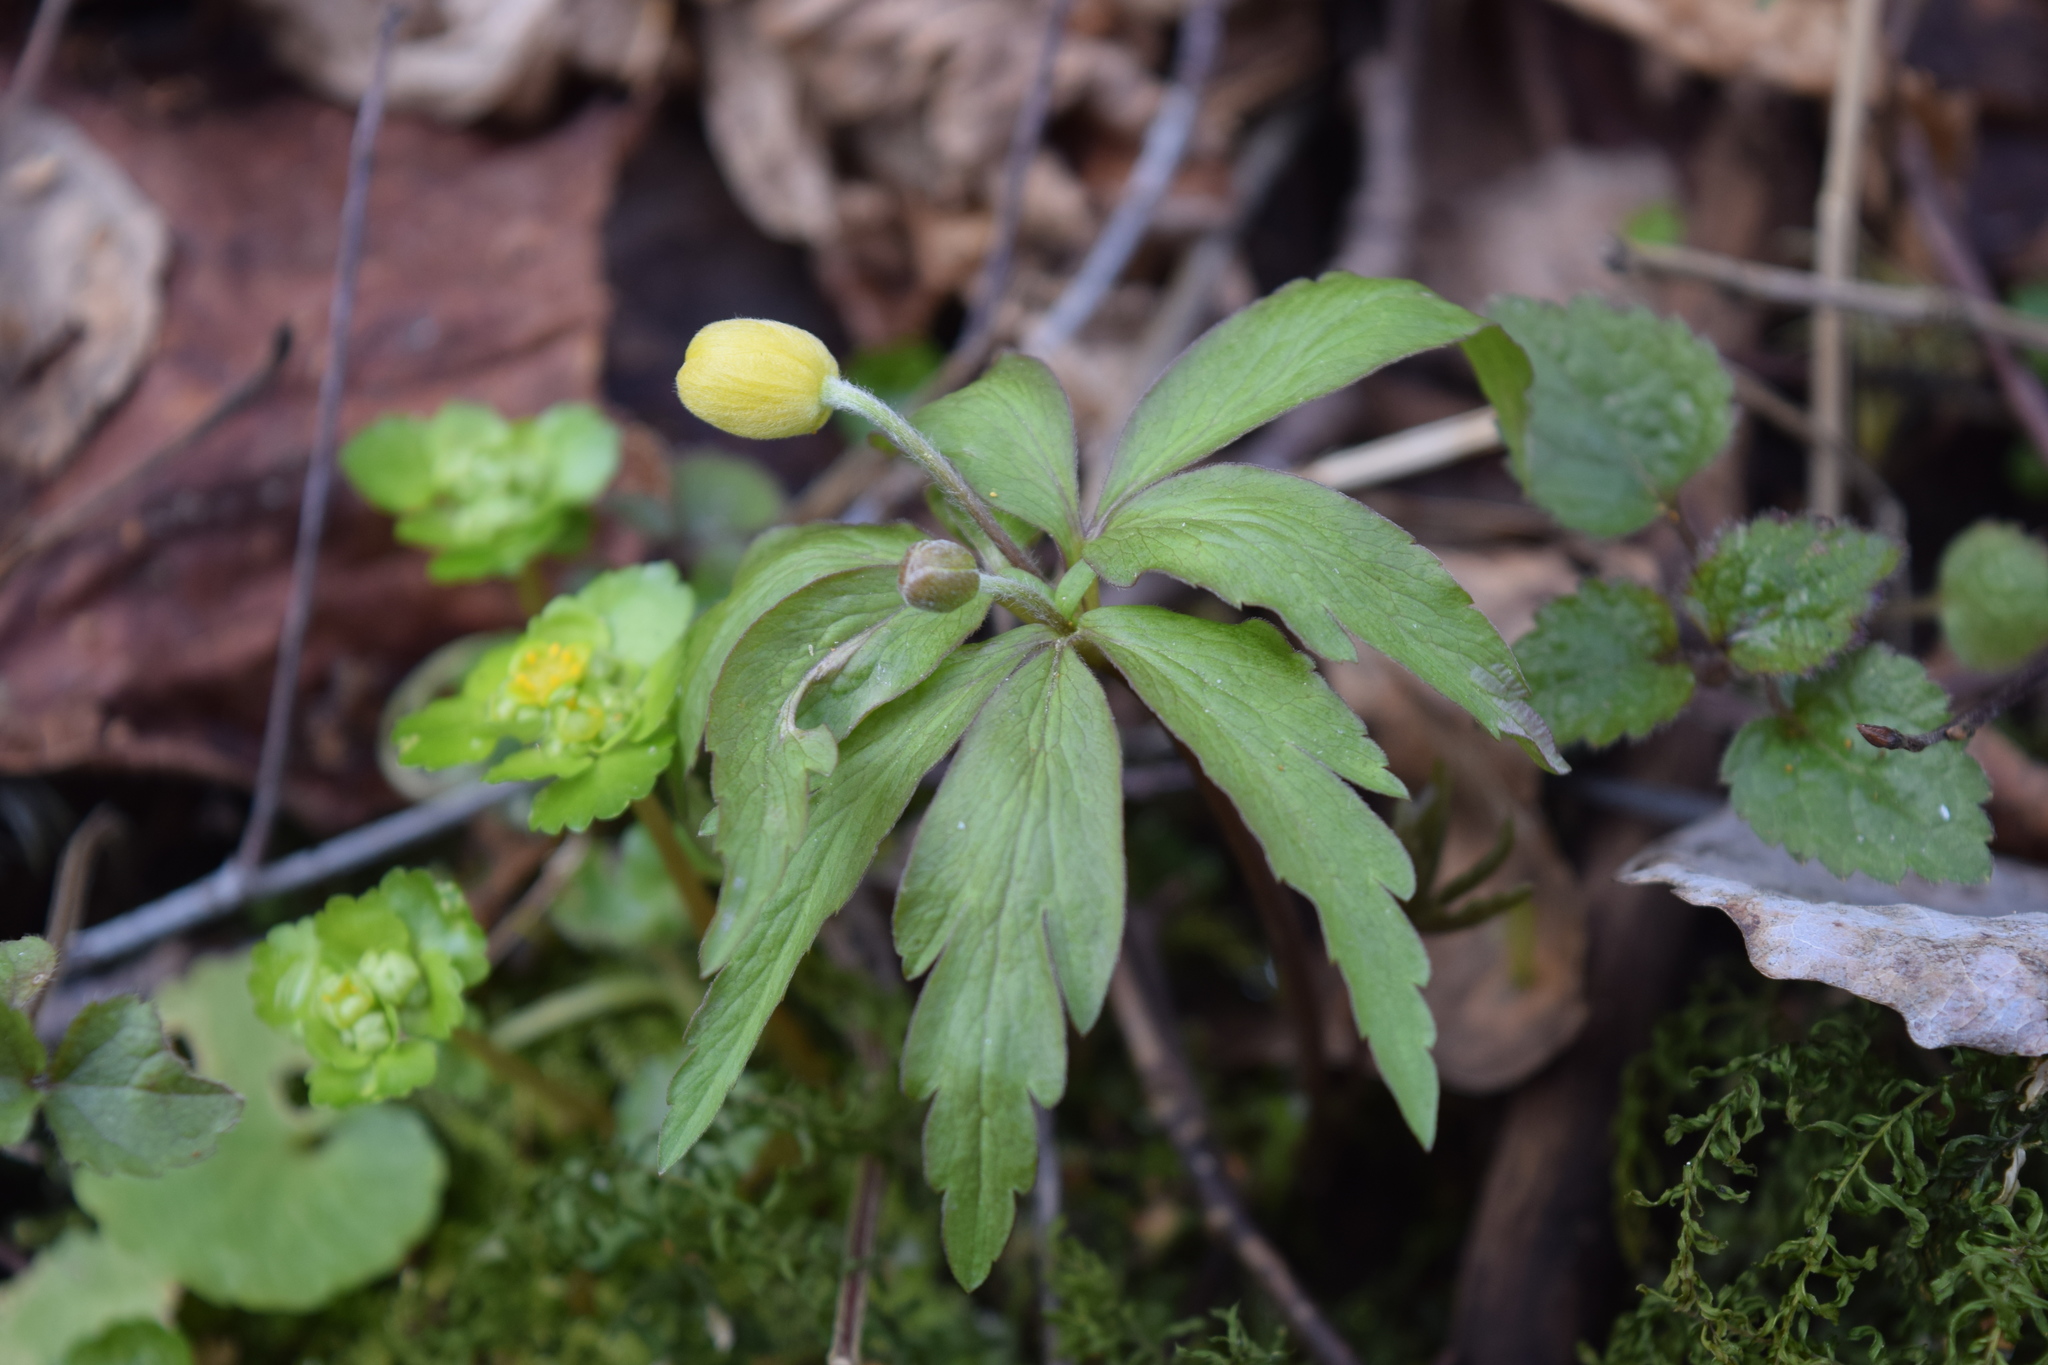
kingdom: Plantae
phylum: Tracheophyta
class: Magnoliopsida
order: Ranunculales
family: Ranunculaceae
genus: Anemone
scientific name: Anemone ranunculoides
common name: Yellow anemone
